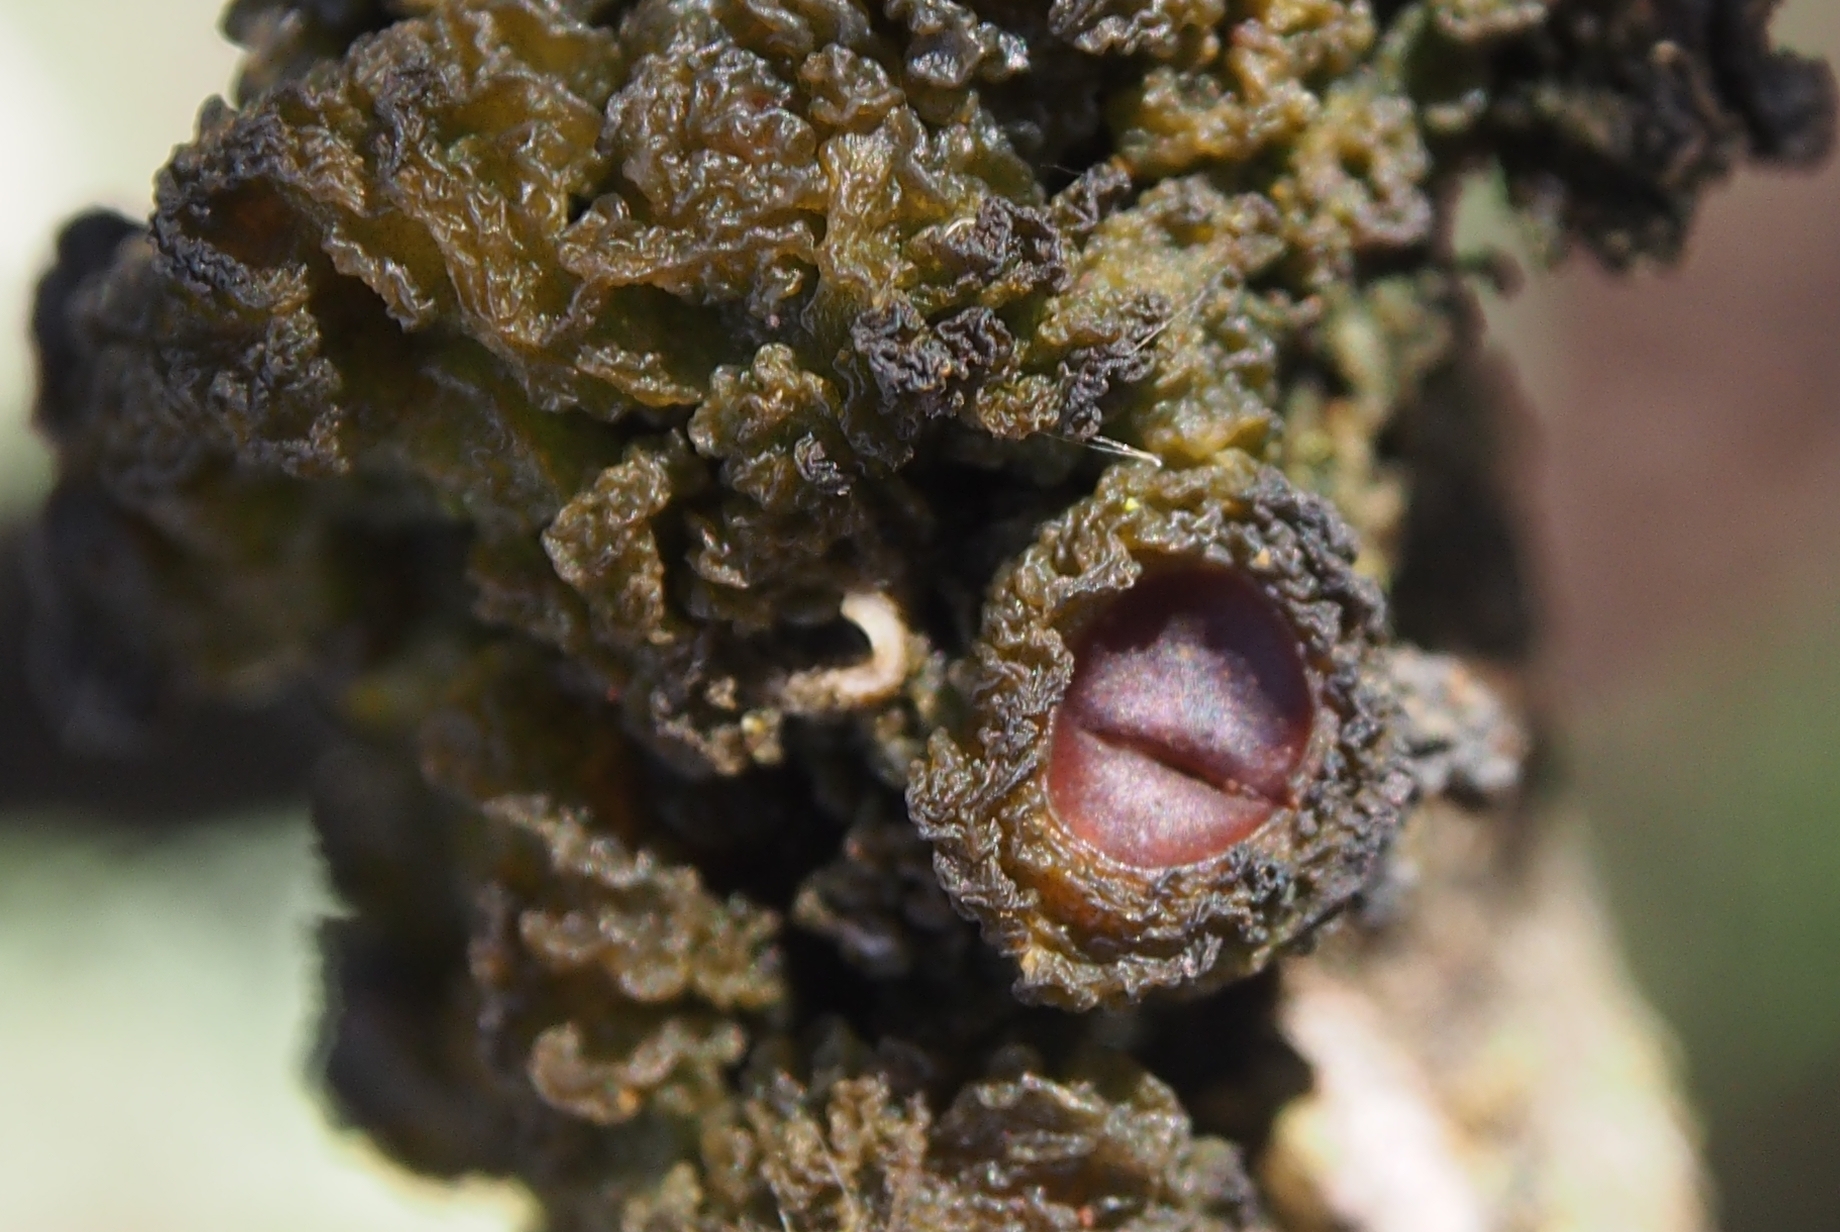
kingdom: Fungi
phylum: Ascomycota
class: Lecanoromycetes
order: Peltigerales
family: Collemataceae
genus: Leptogium
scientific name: Leptogium phyllocarpum
